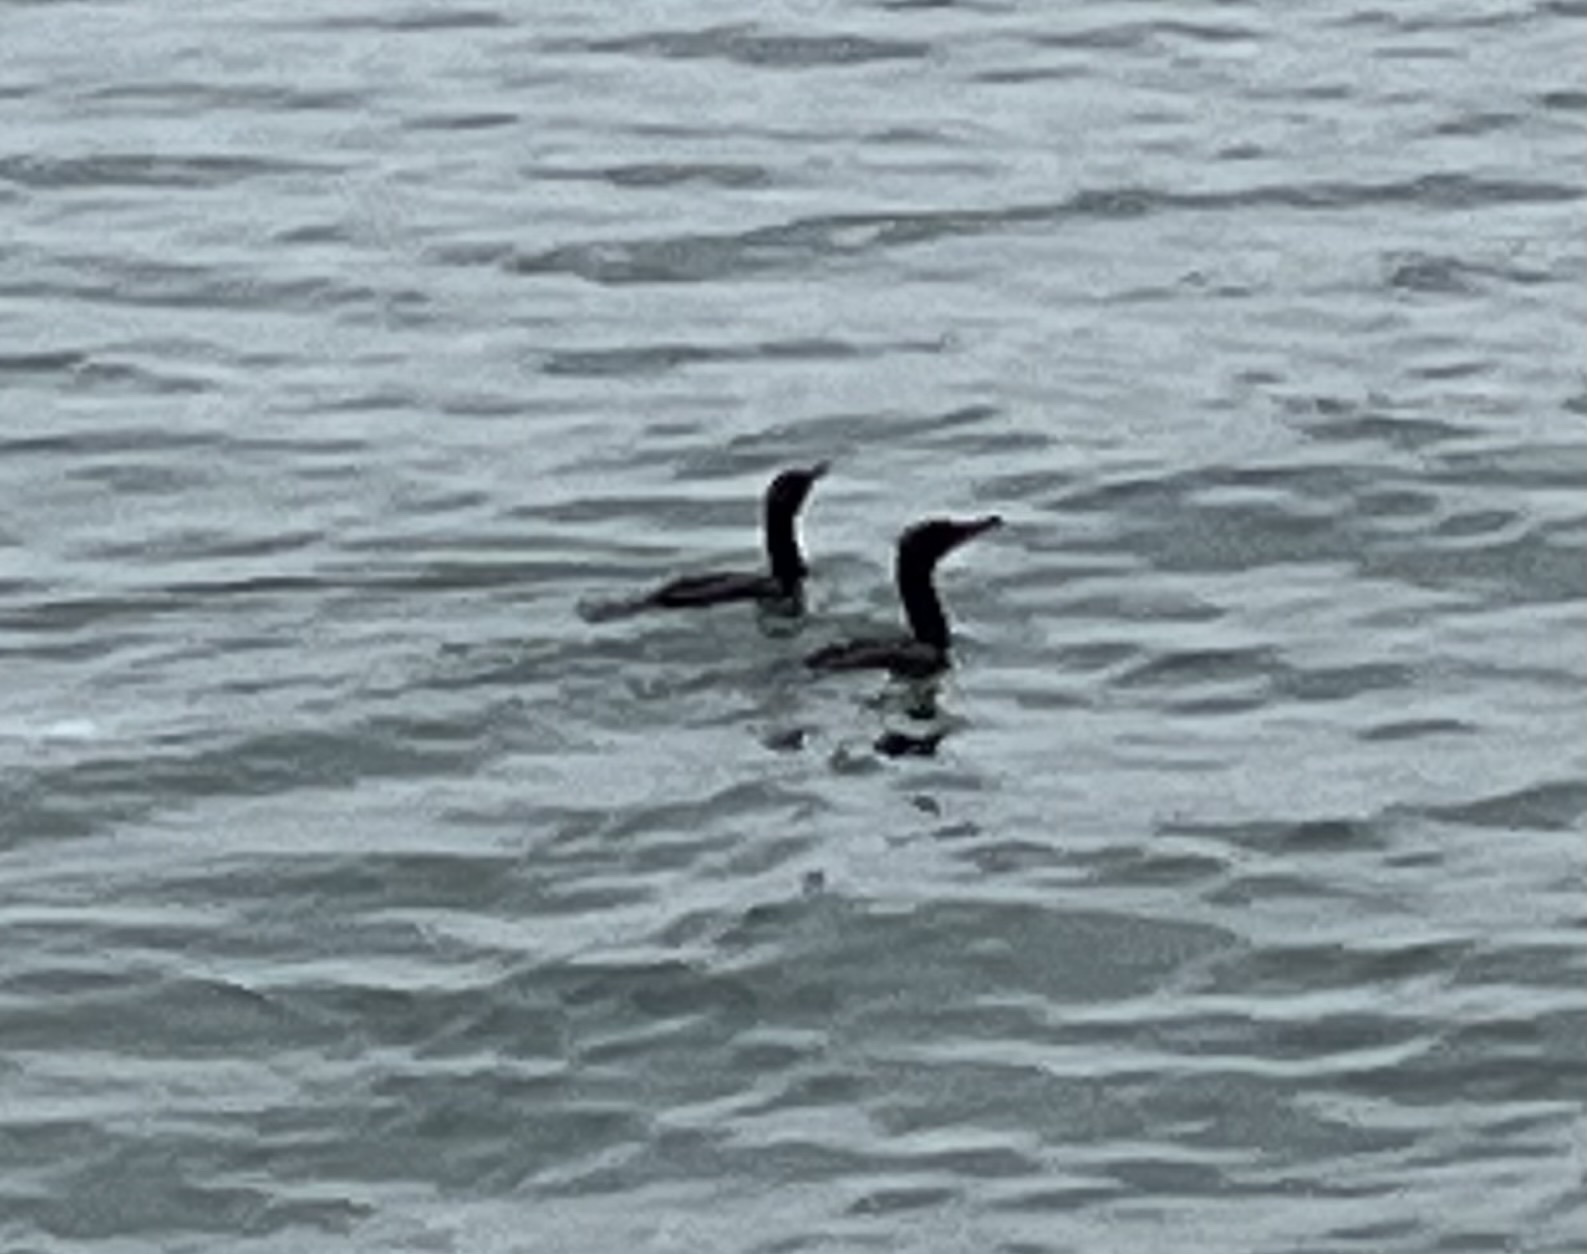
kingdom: Animalia
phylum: Chordata
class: Aves
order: Suliformes
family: Phalacrocoracidae
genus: Phalacrocorax
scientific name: Phalacrocorax brasilianus
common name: Neotropic cormorant
